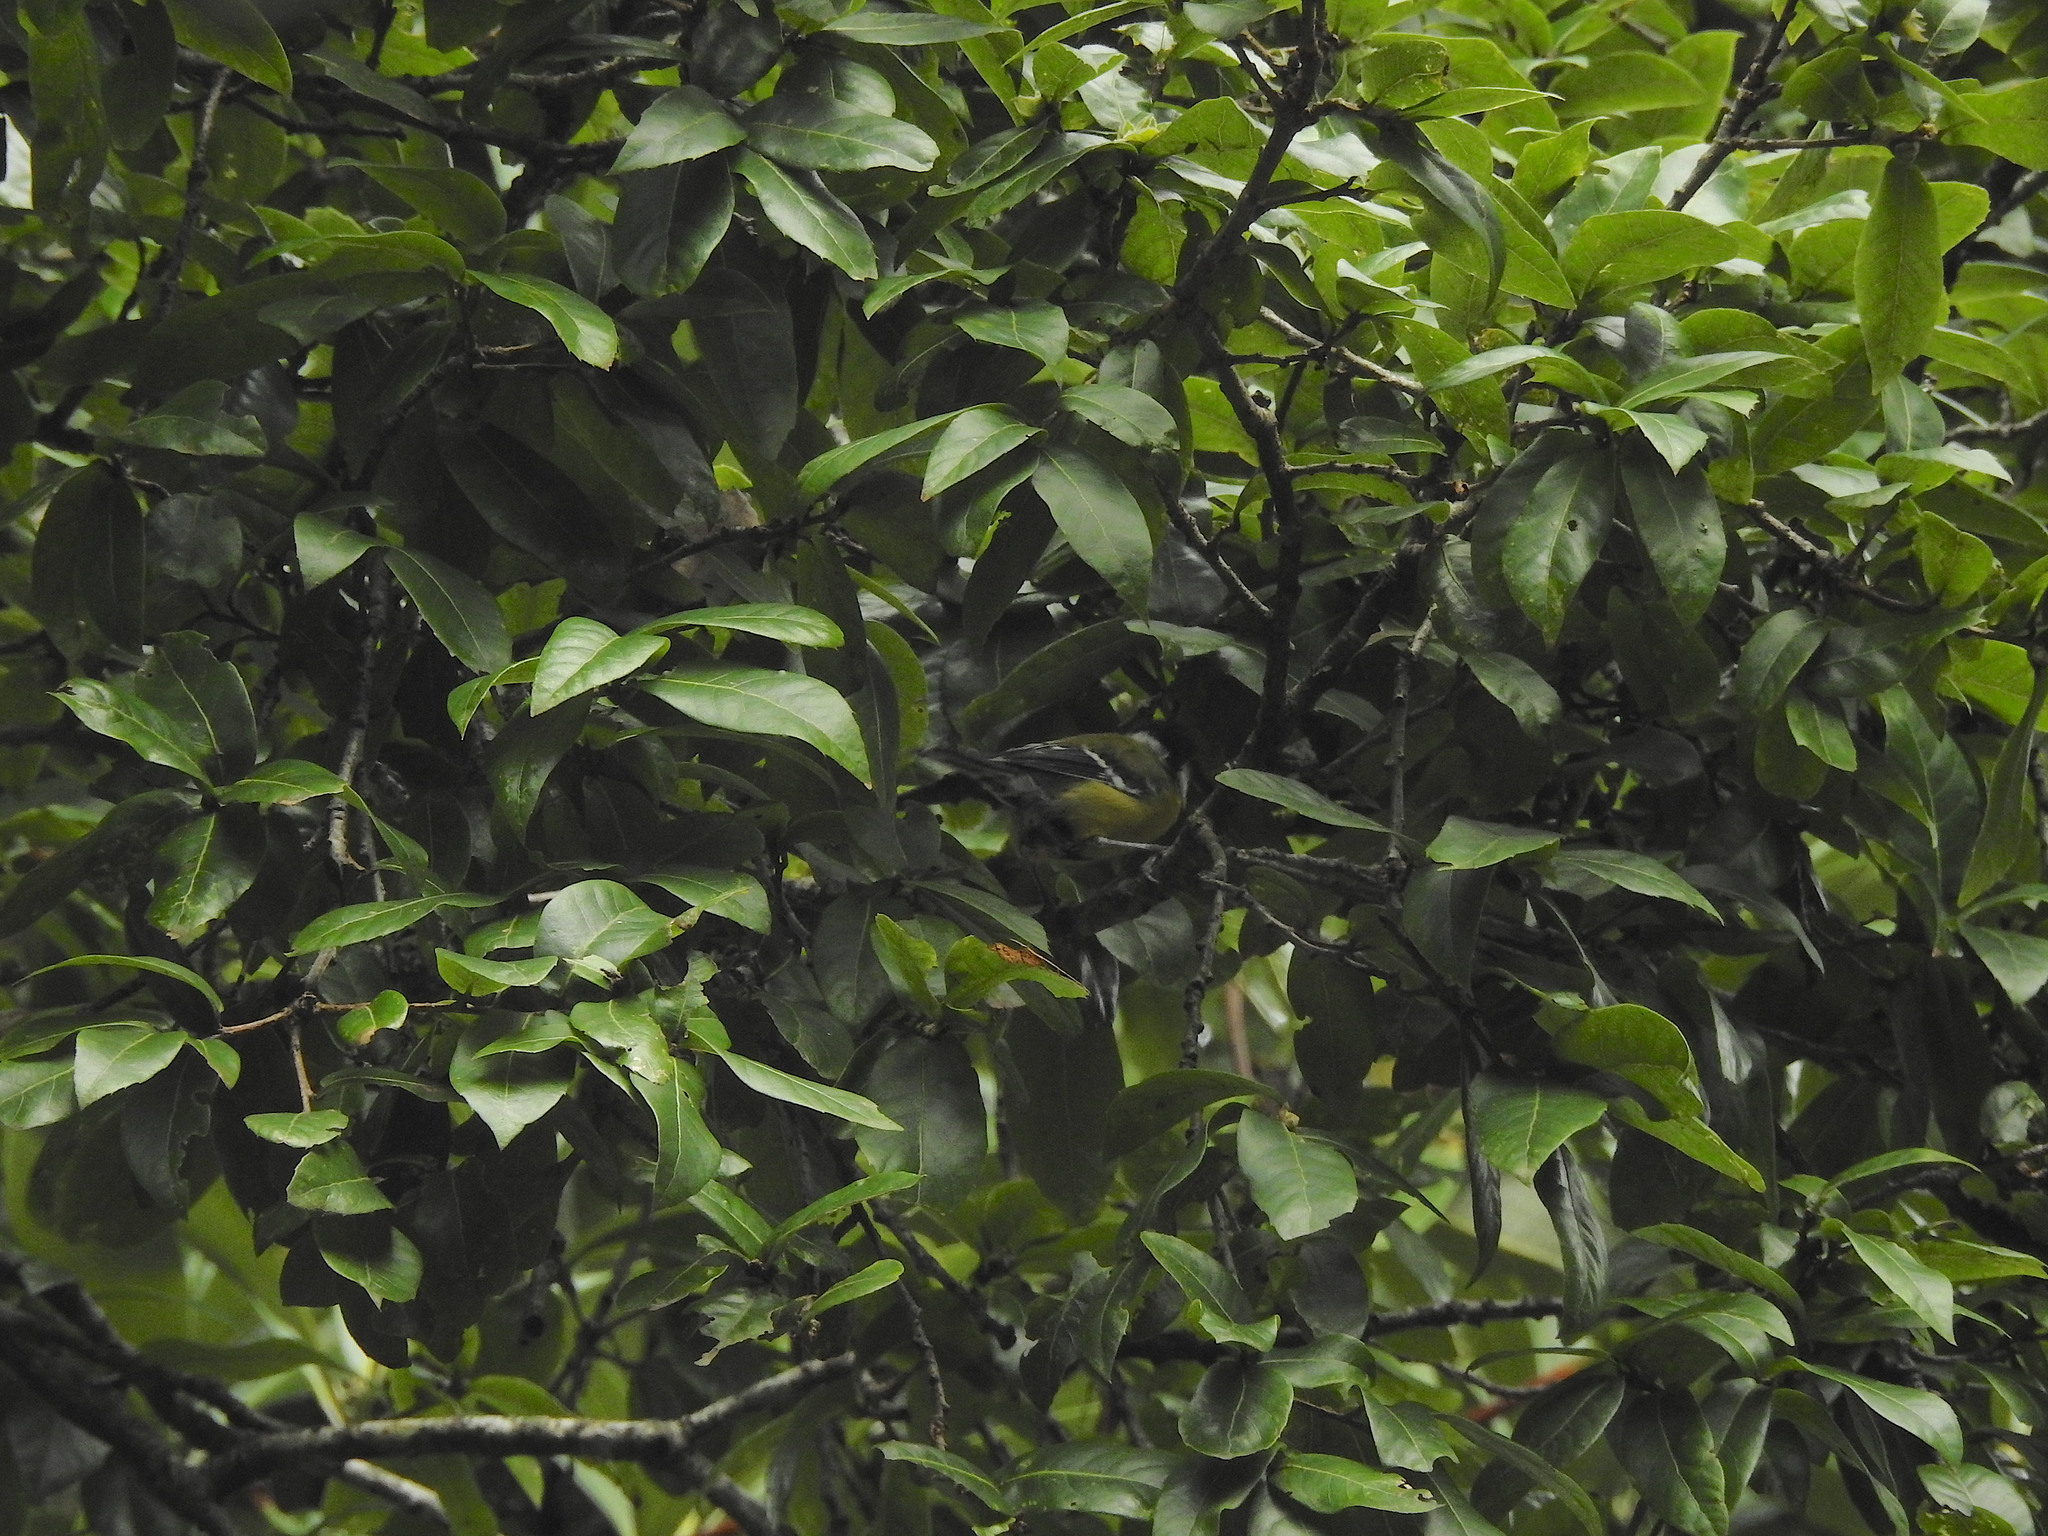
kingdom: Animalia
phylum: Chordata
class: Aves
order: Passeriformes
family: Paridae
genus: Parus
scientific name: Parus monticolus
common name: Green-backed tit
